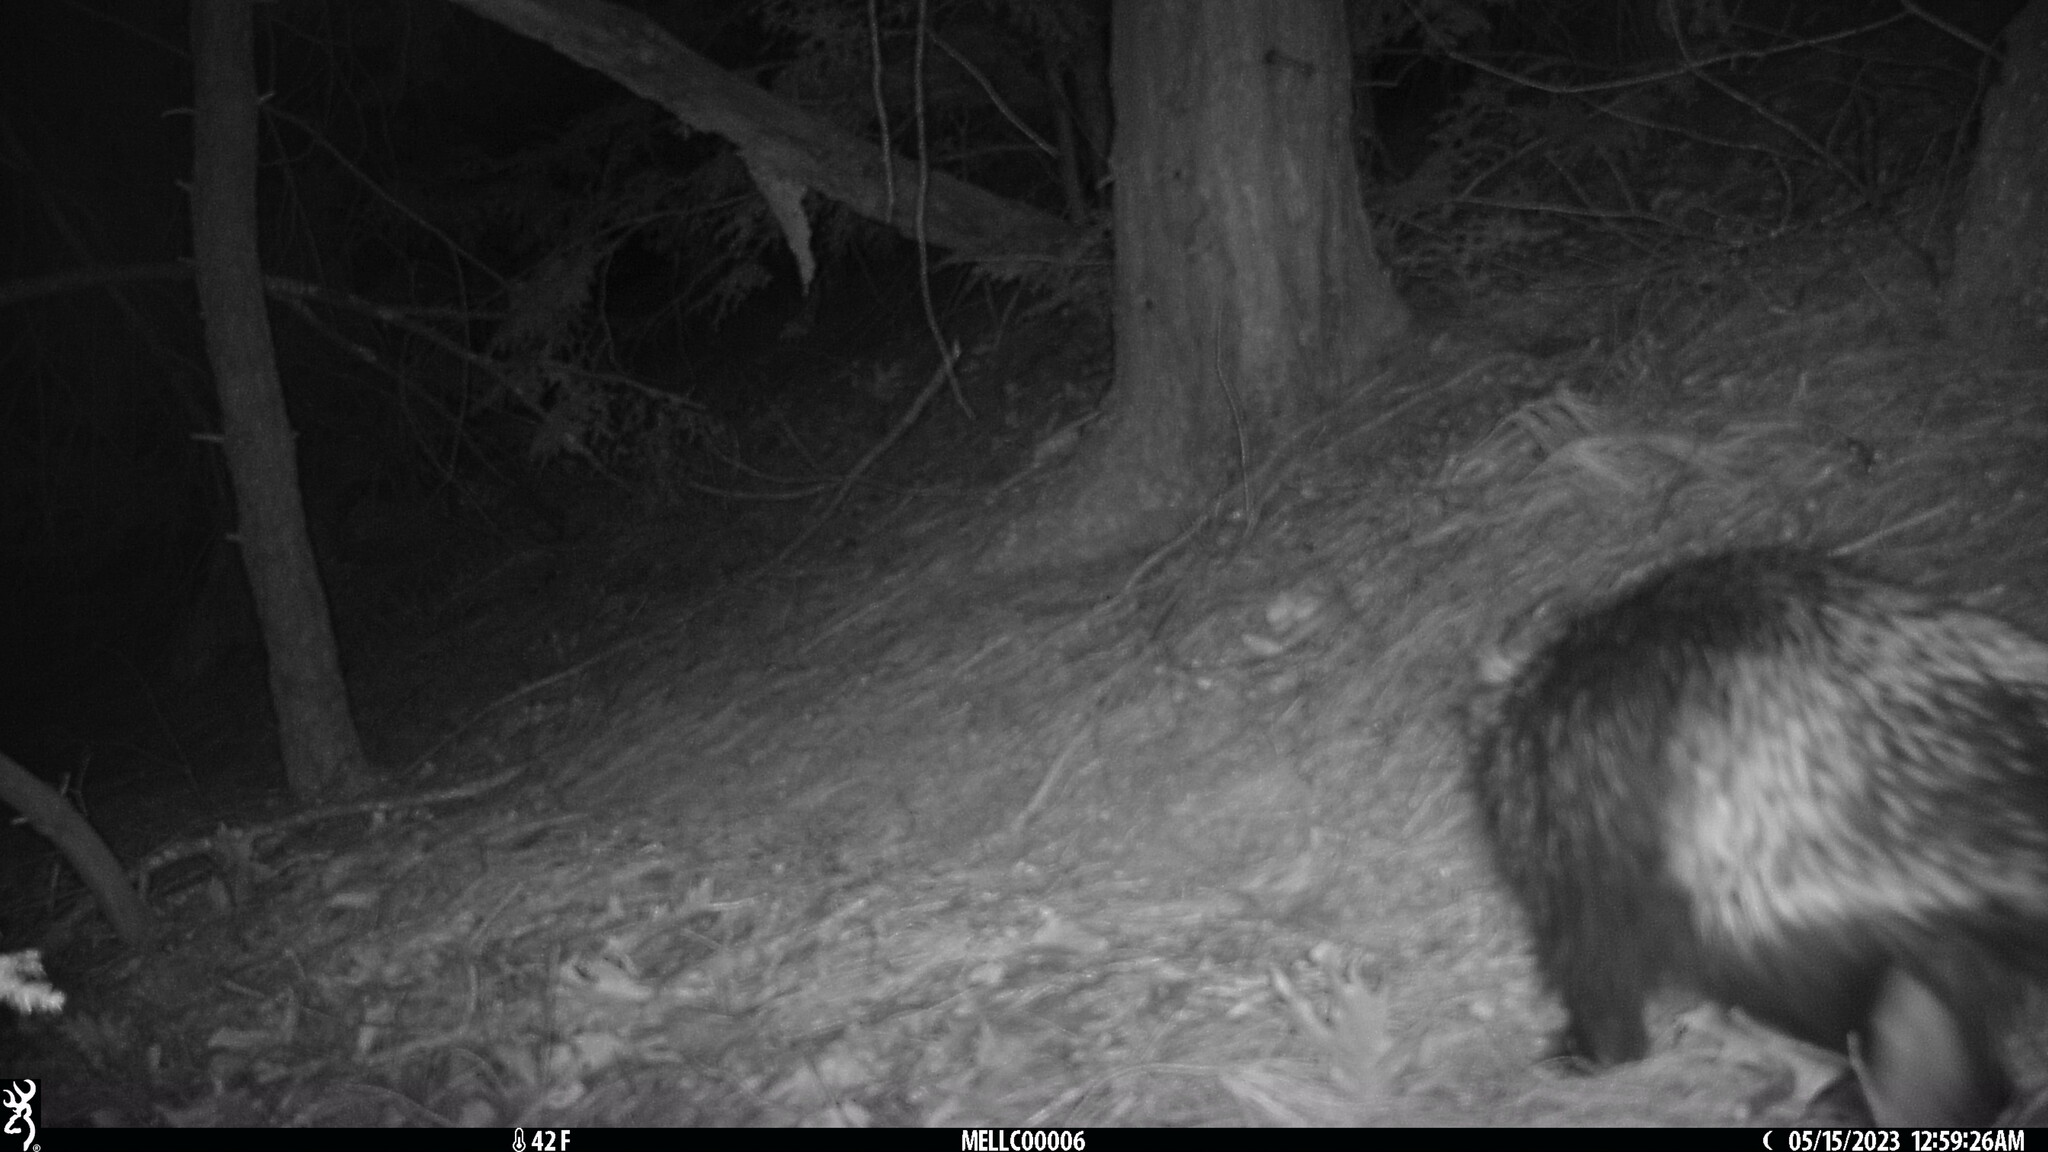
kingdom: Animalia
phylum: Chordata
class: Mammalia
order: Rodentia
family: Erethizontidae
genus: Erethizon
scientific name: Erethizon dorsatus
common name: North american porcupine
